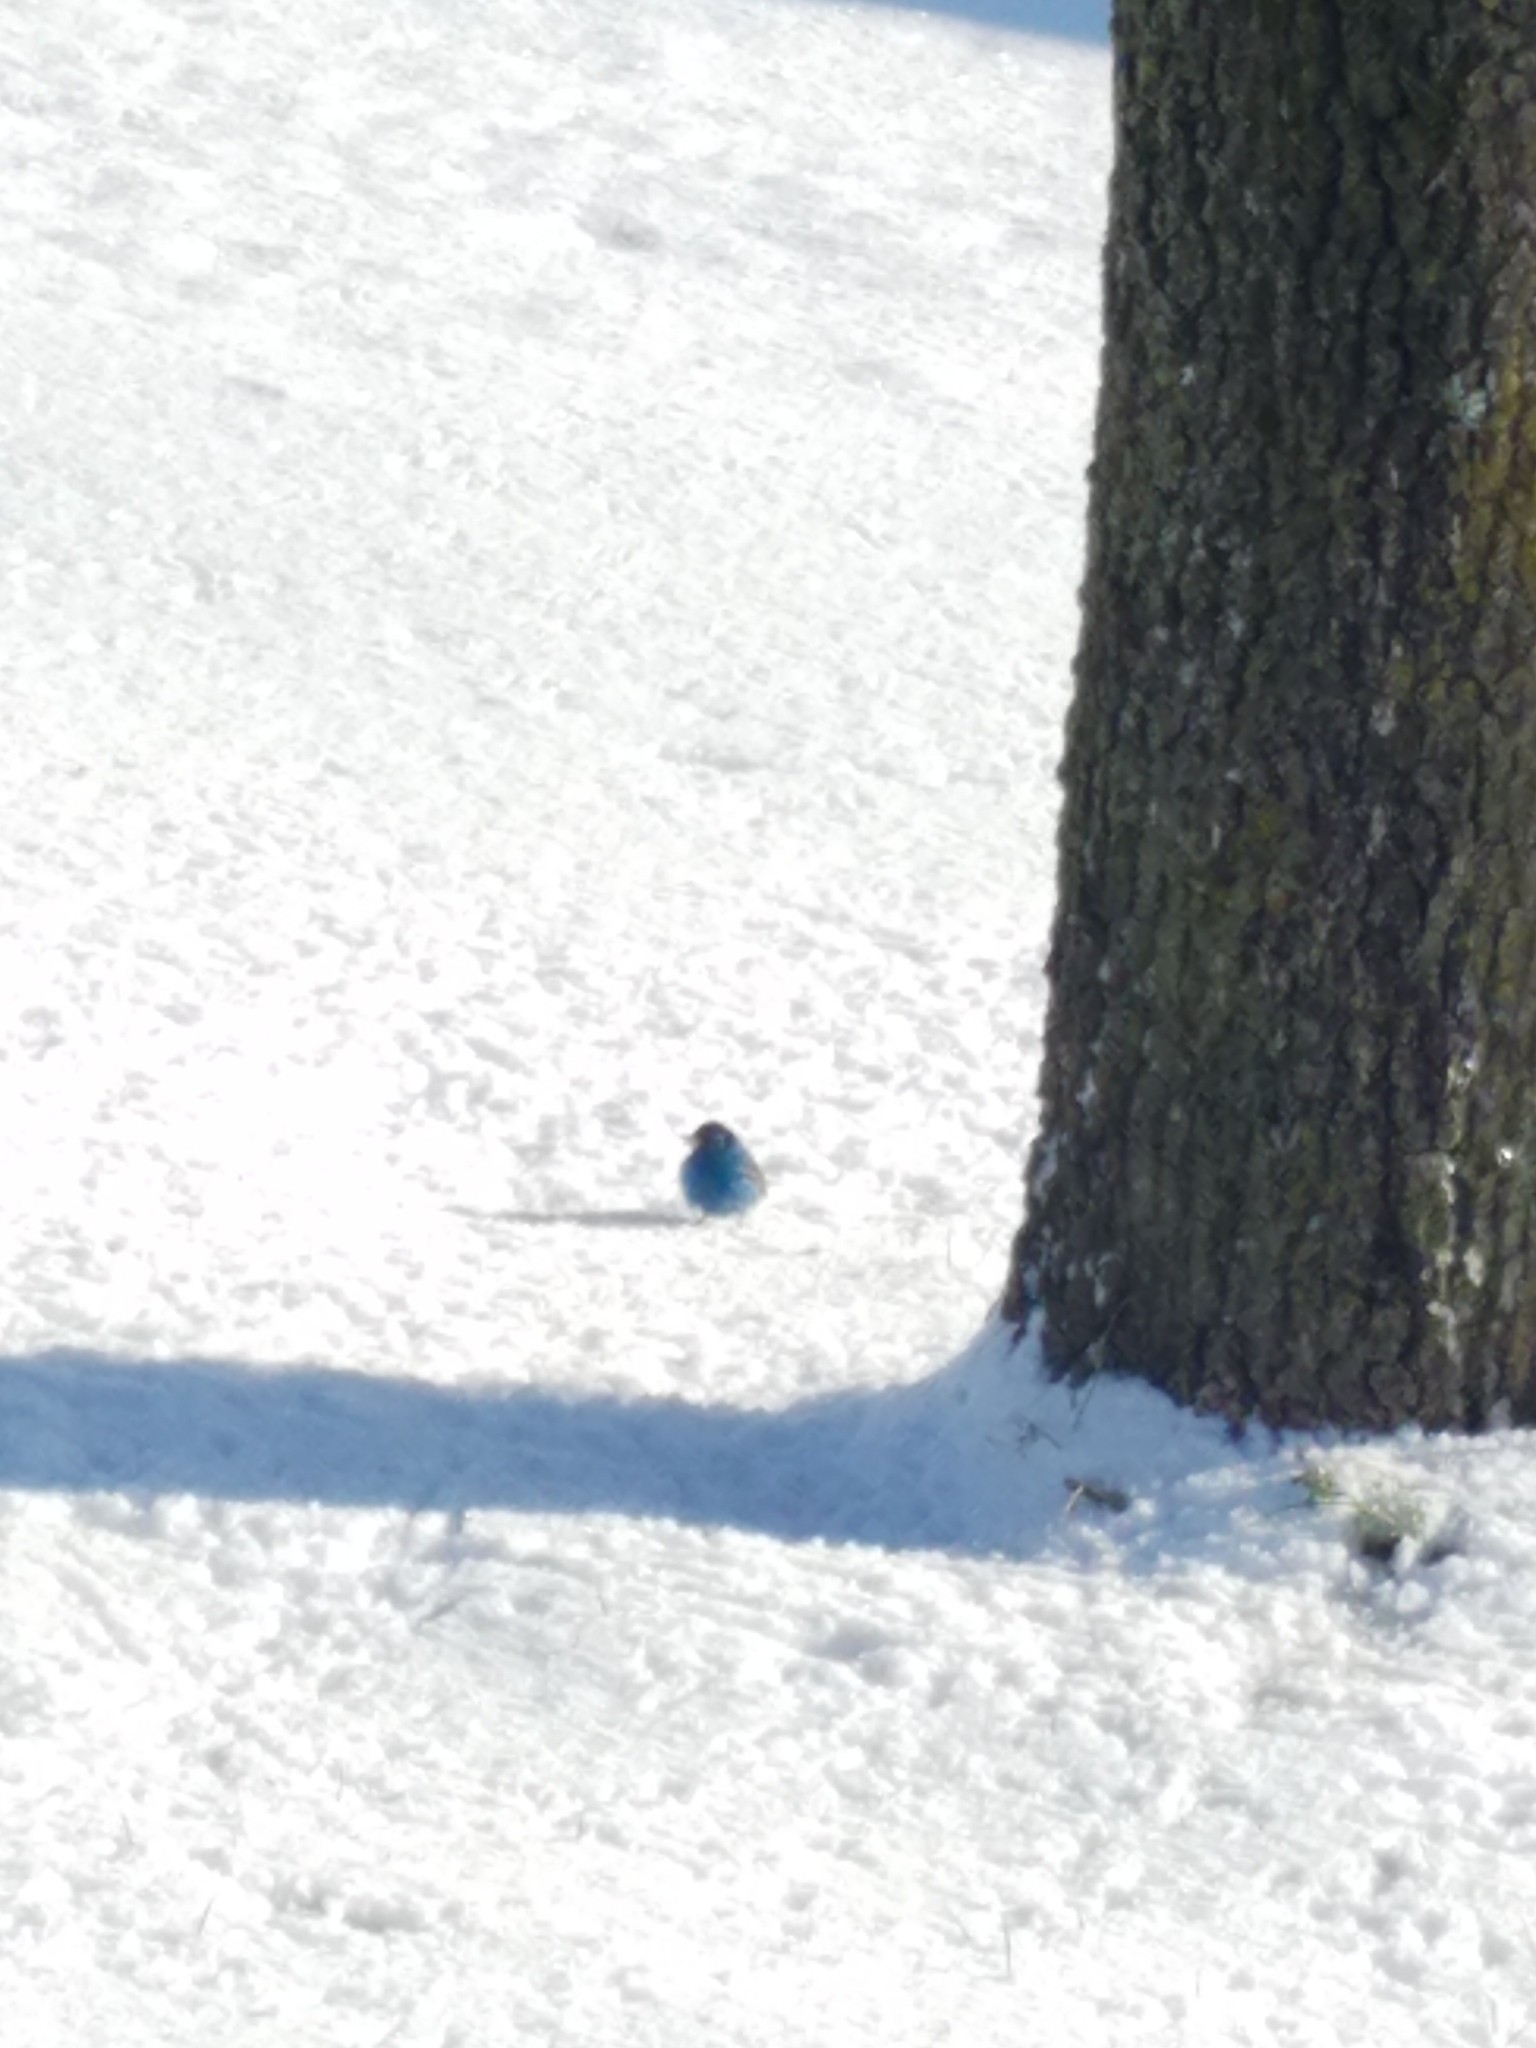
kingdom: Animalia
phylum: Chordata
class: Aves
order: Passeriformes
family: Cardinalidae
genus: Passerina
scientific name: Passerina cyanea
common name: Indigo bunting
